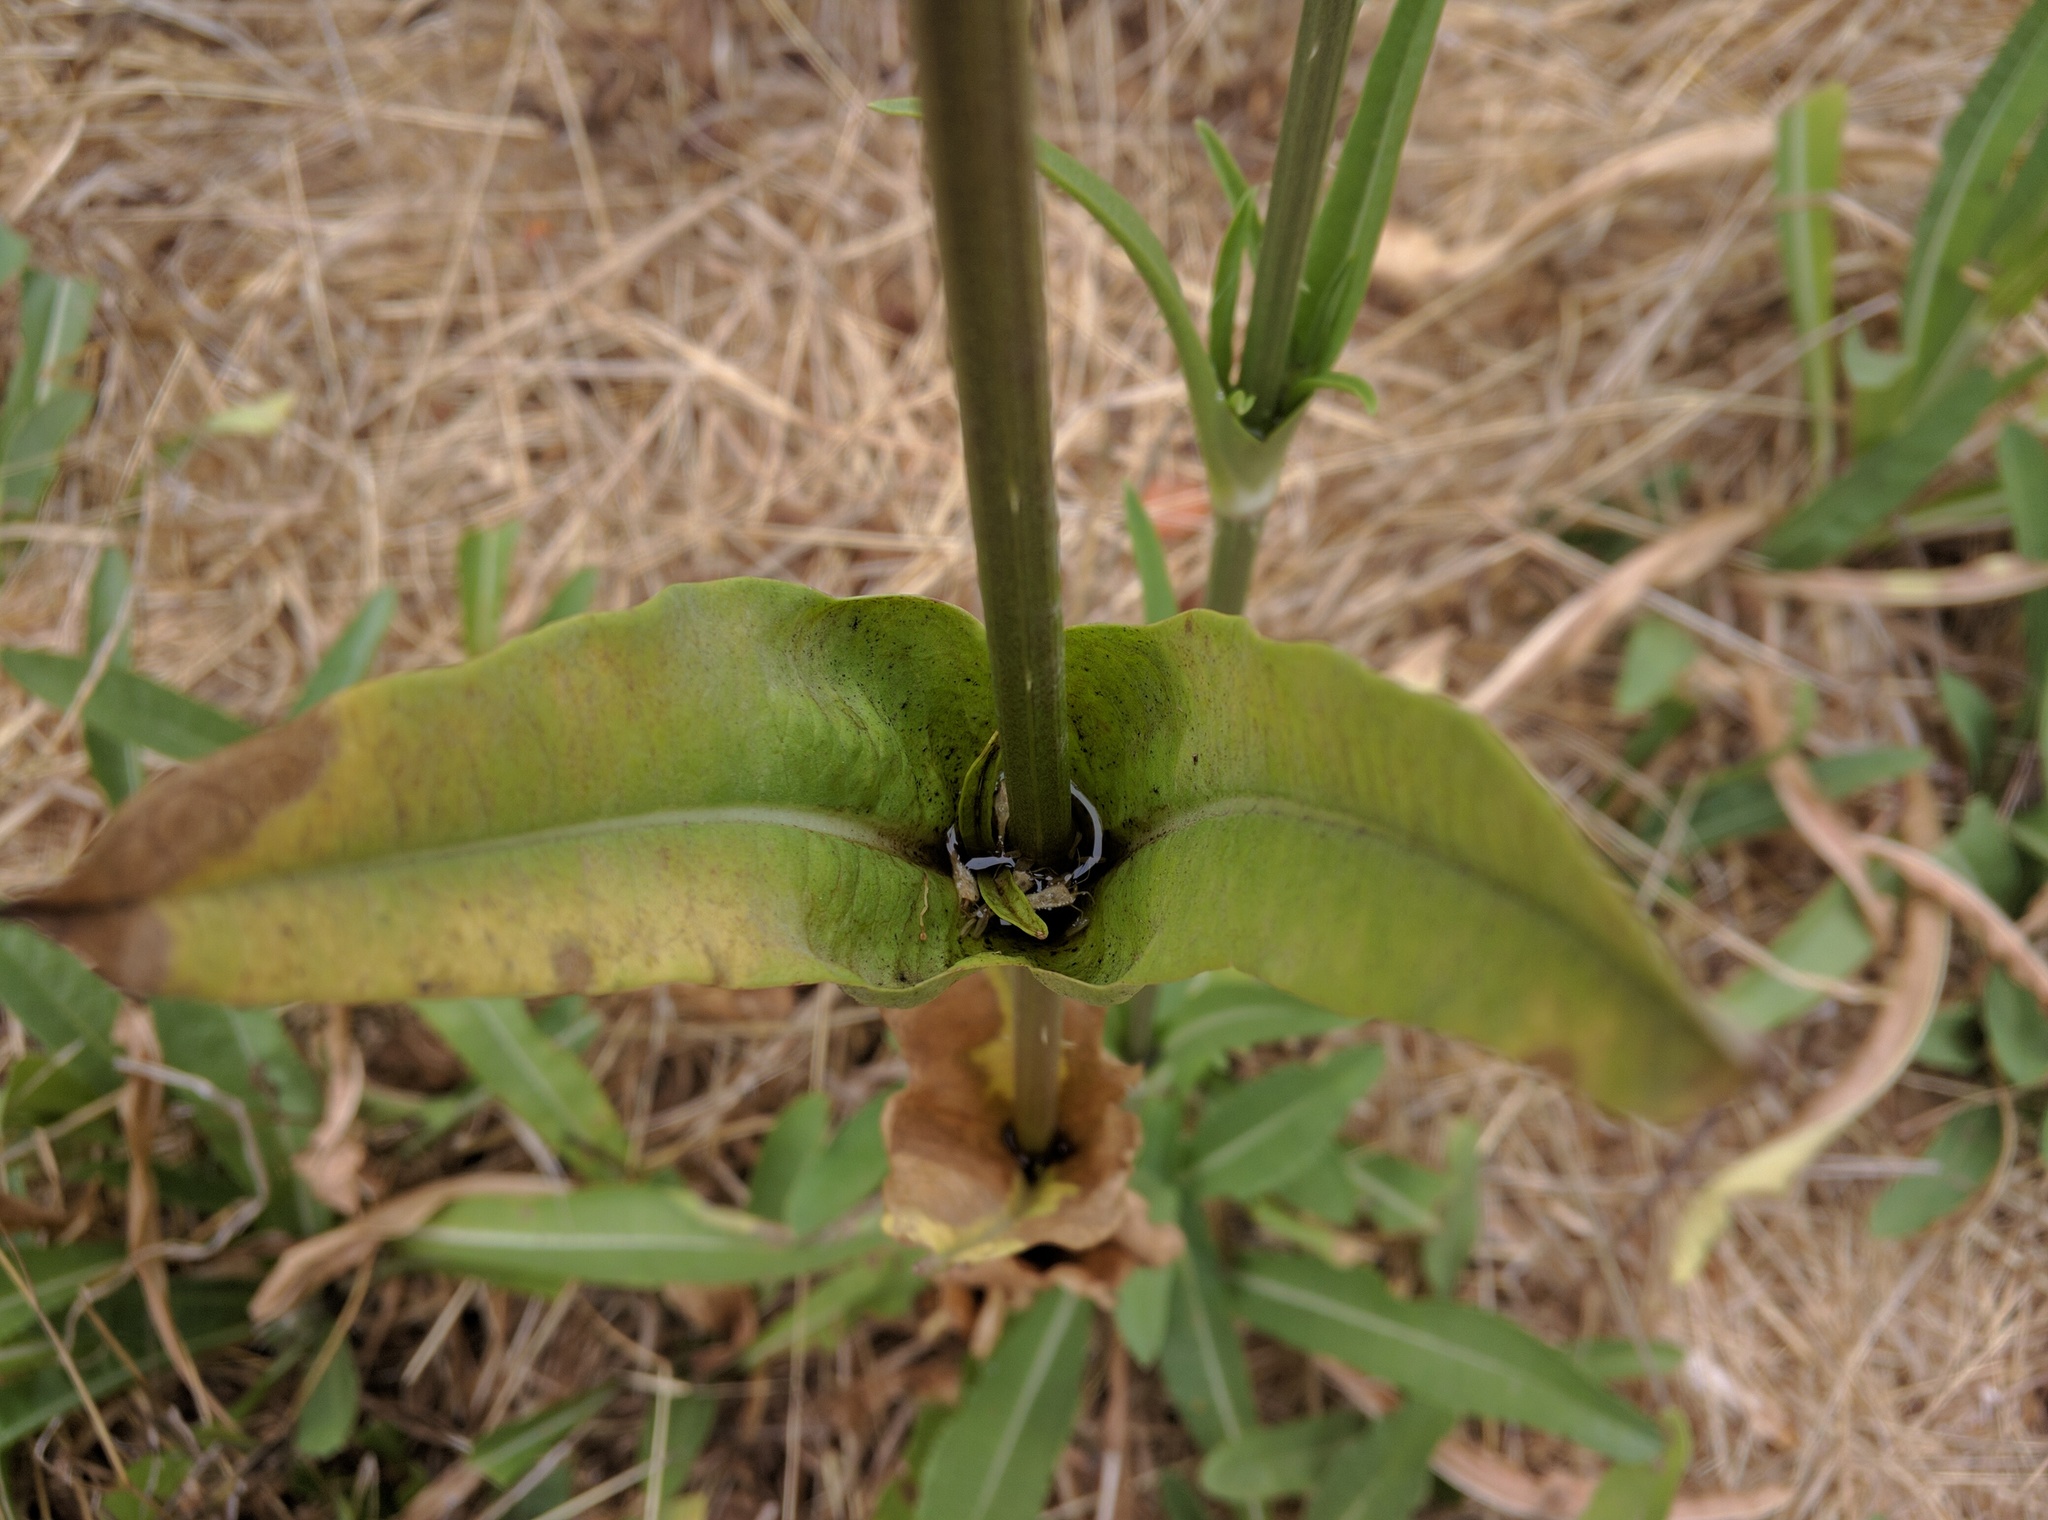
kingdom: Plantae
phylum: Tracheophyta
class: Magnoliopsida
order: Dipsacales
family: Caprifoliaceae
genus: Dipsacus
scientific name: Dipsacus sativus
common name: Fuller's teasel
